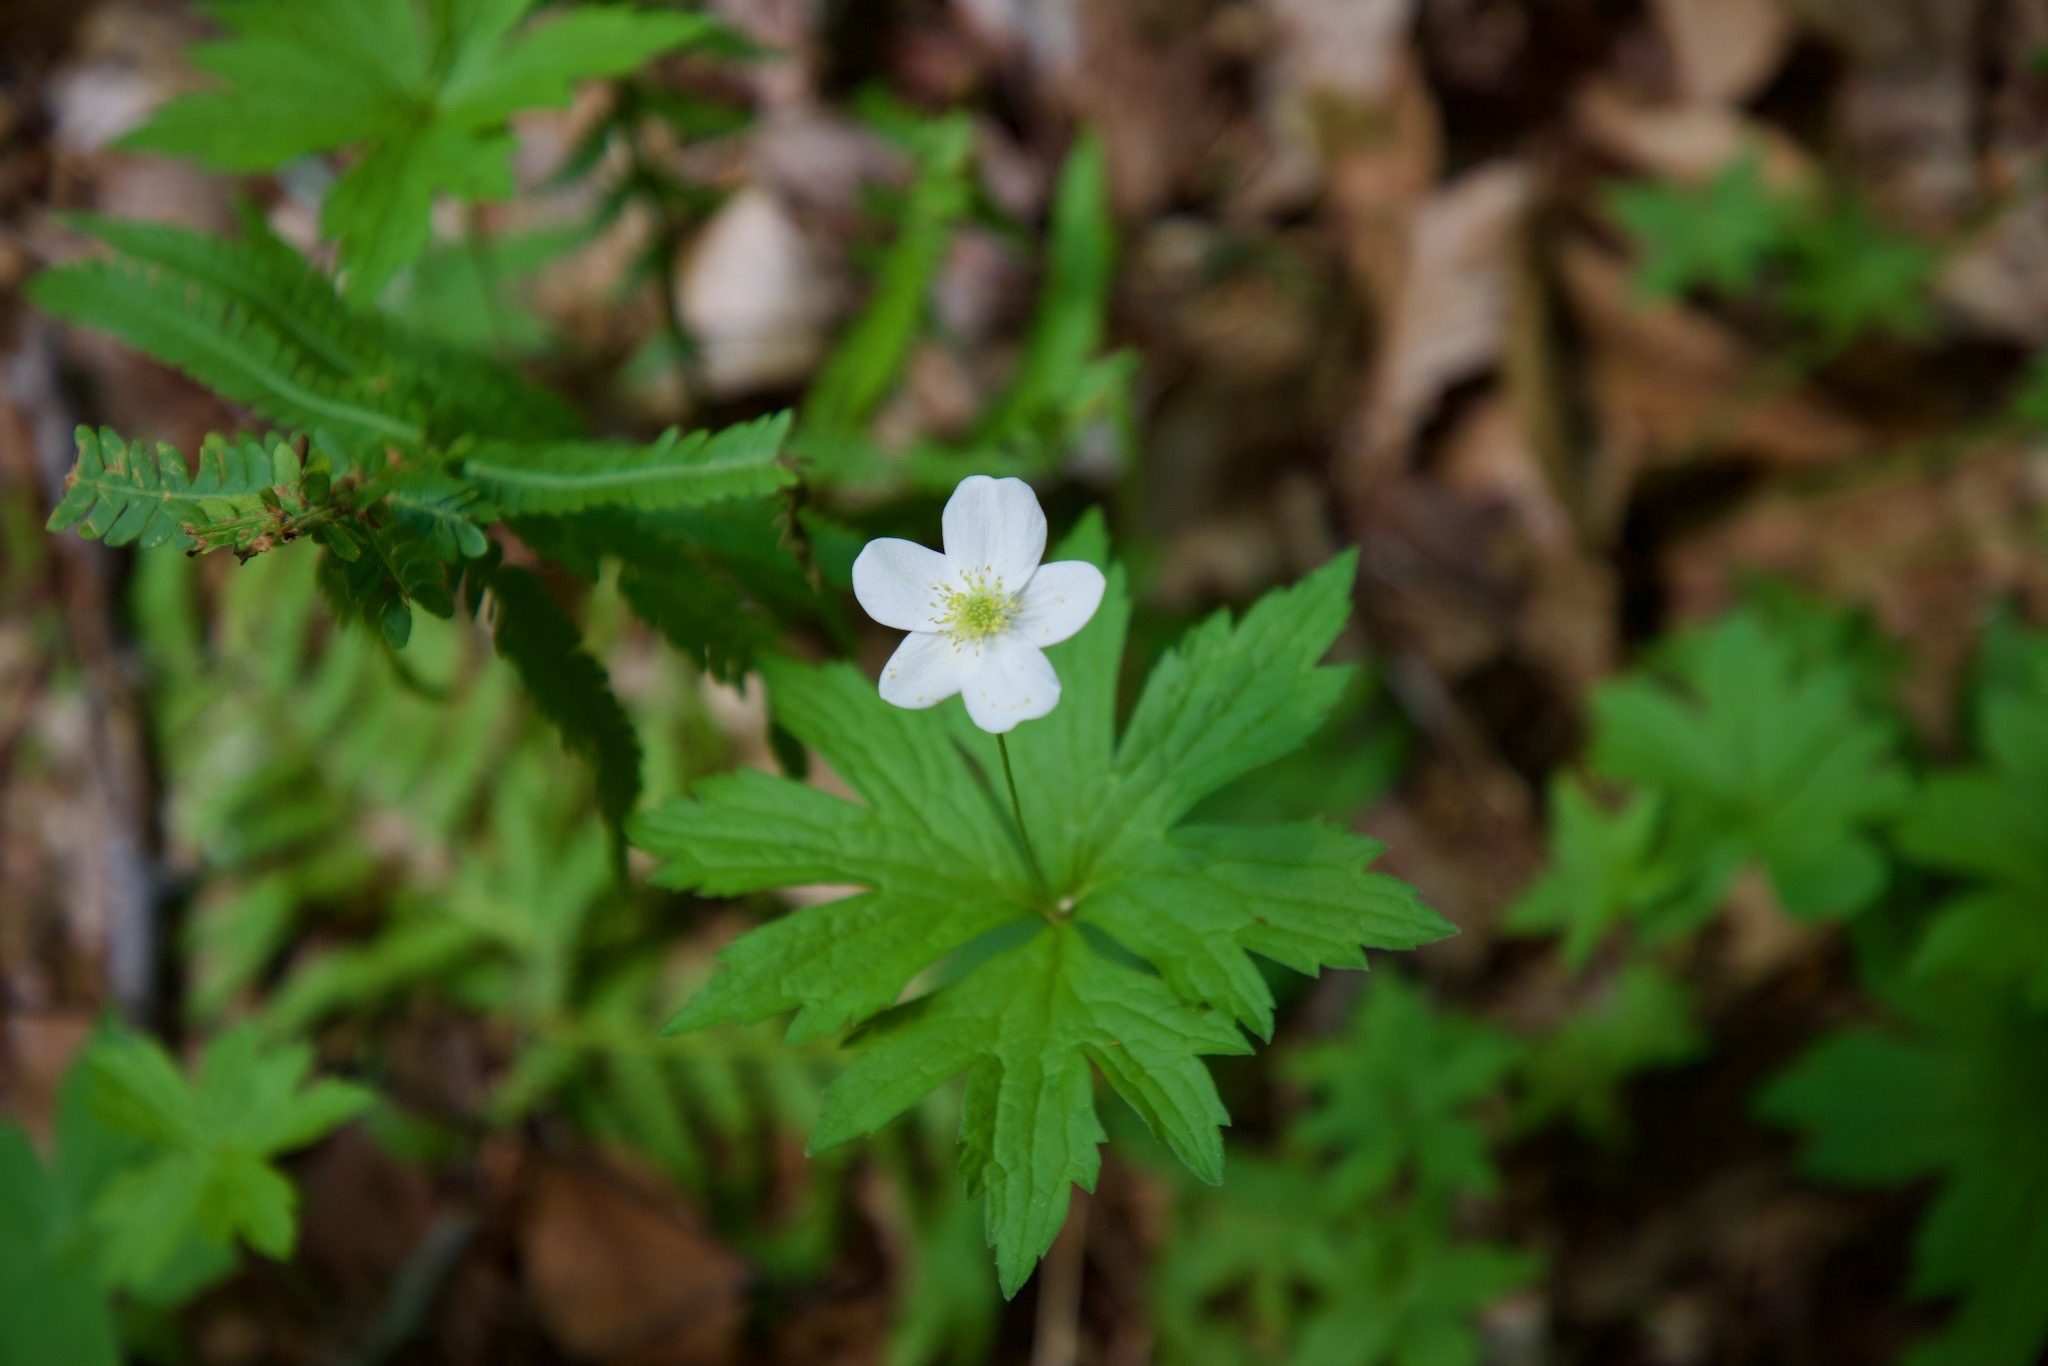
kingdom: Plantae
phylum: Tracheophyta
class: Magnoliopsida
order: Ranunculales
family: Ranunculaceae
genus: Anemonastrum
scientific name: Anemonastrum canadense
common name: Canada anemone
